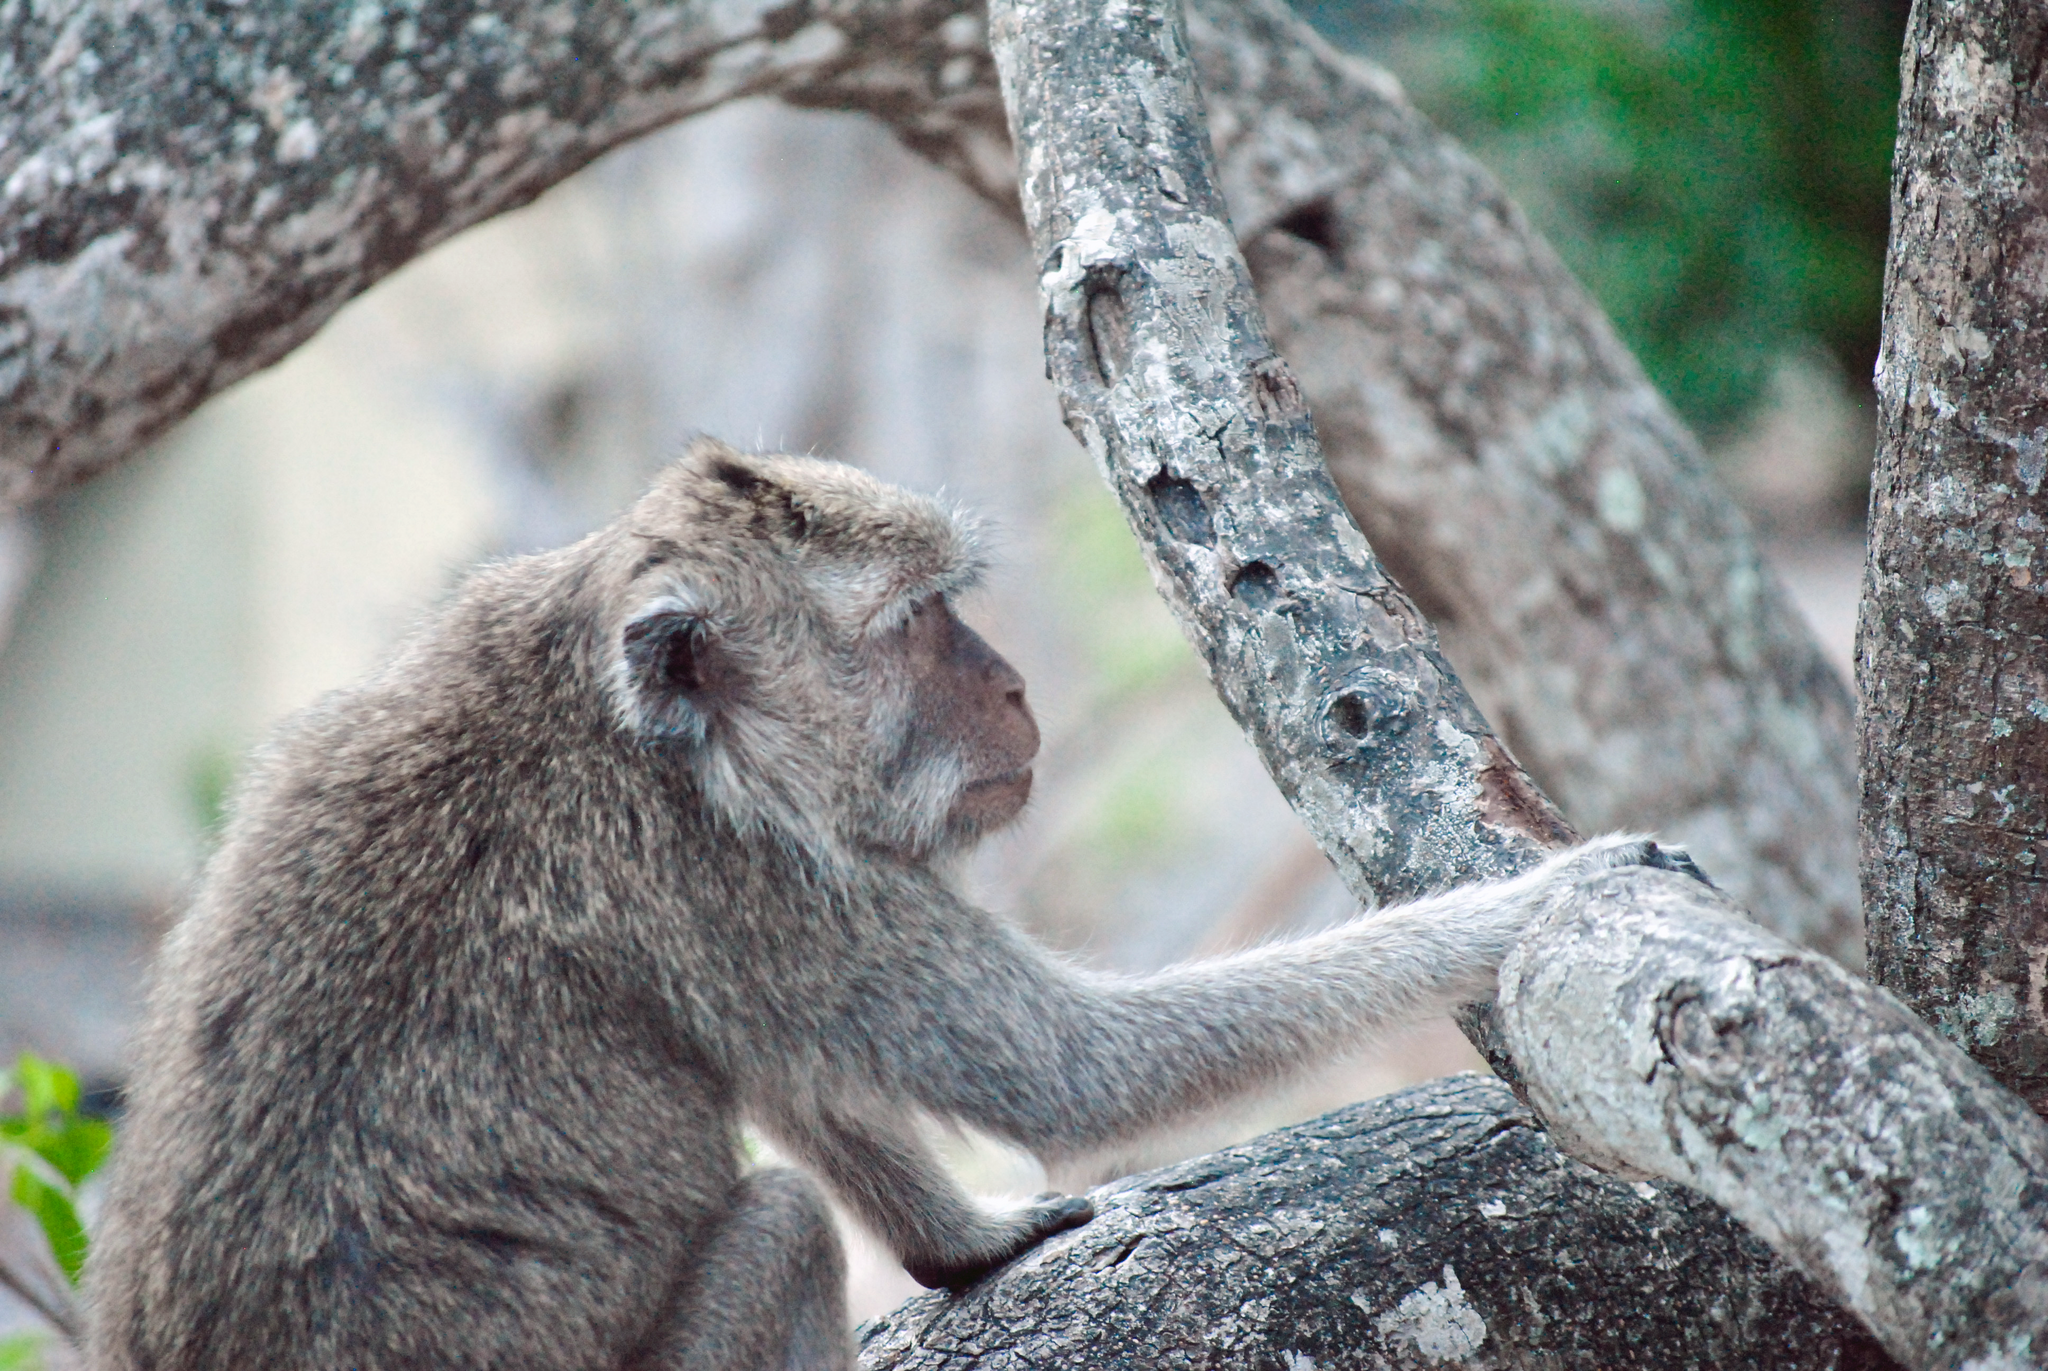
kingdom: Animalia
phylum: Chordata
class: Mammalia
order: Primates
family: Cercopithecidae
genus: Macaca
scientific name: Macaca fascicularis
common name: Crab-eating macaque
